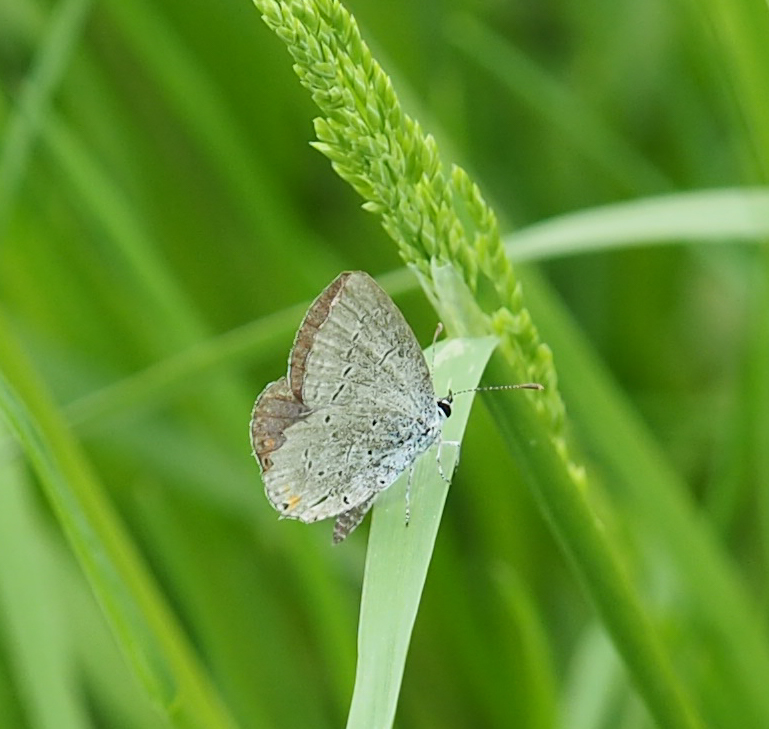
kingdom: Animalia
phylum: Arthropoda
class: Insecta
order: Lepidoptera
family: Lycaenidae
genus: Elkalyce
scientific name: Elkalyce comyntas
